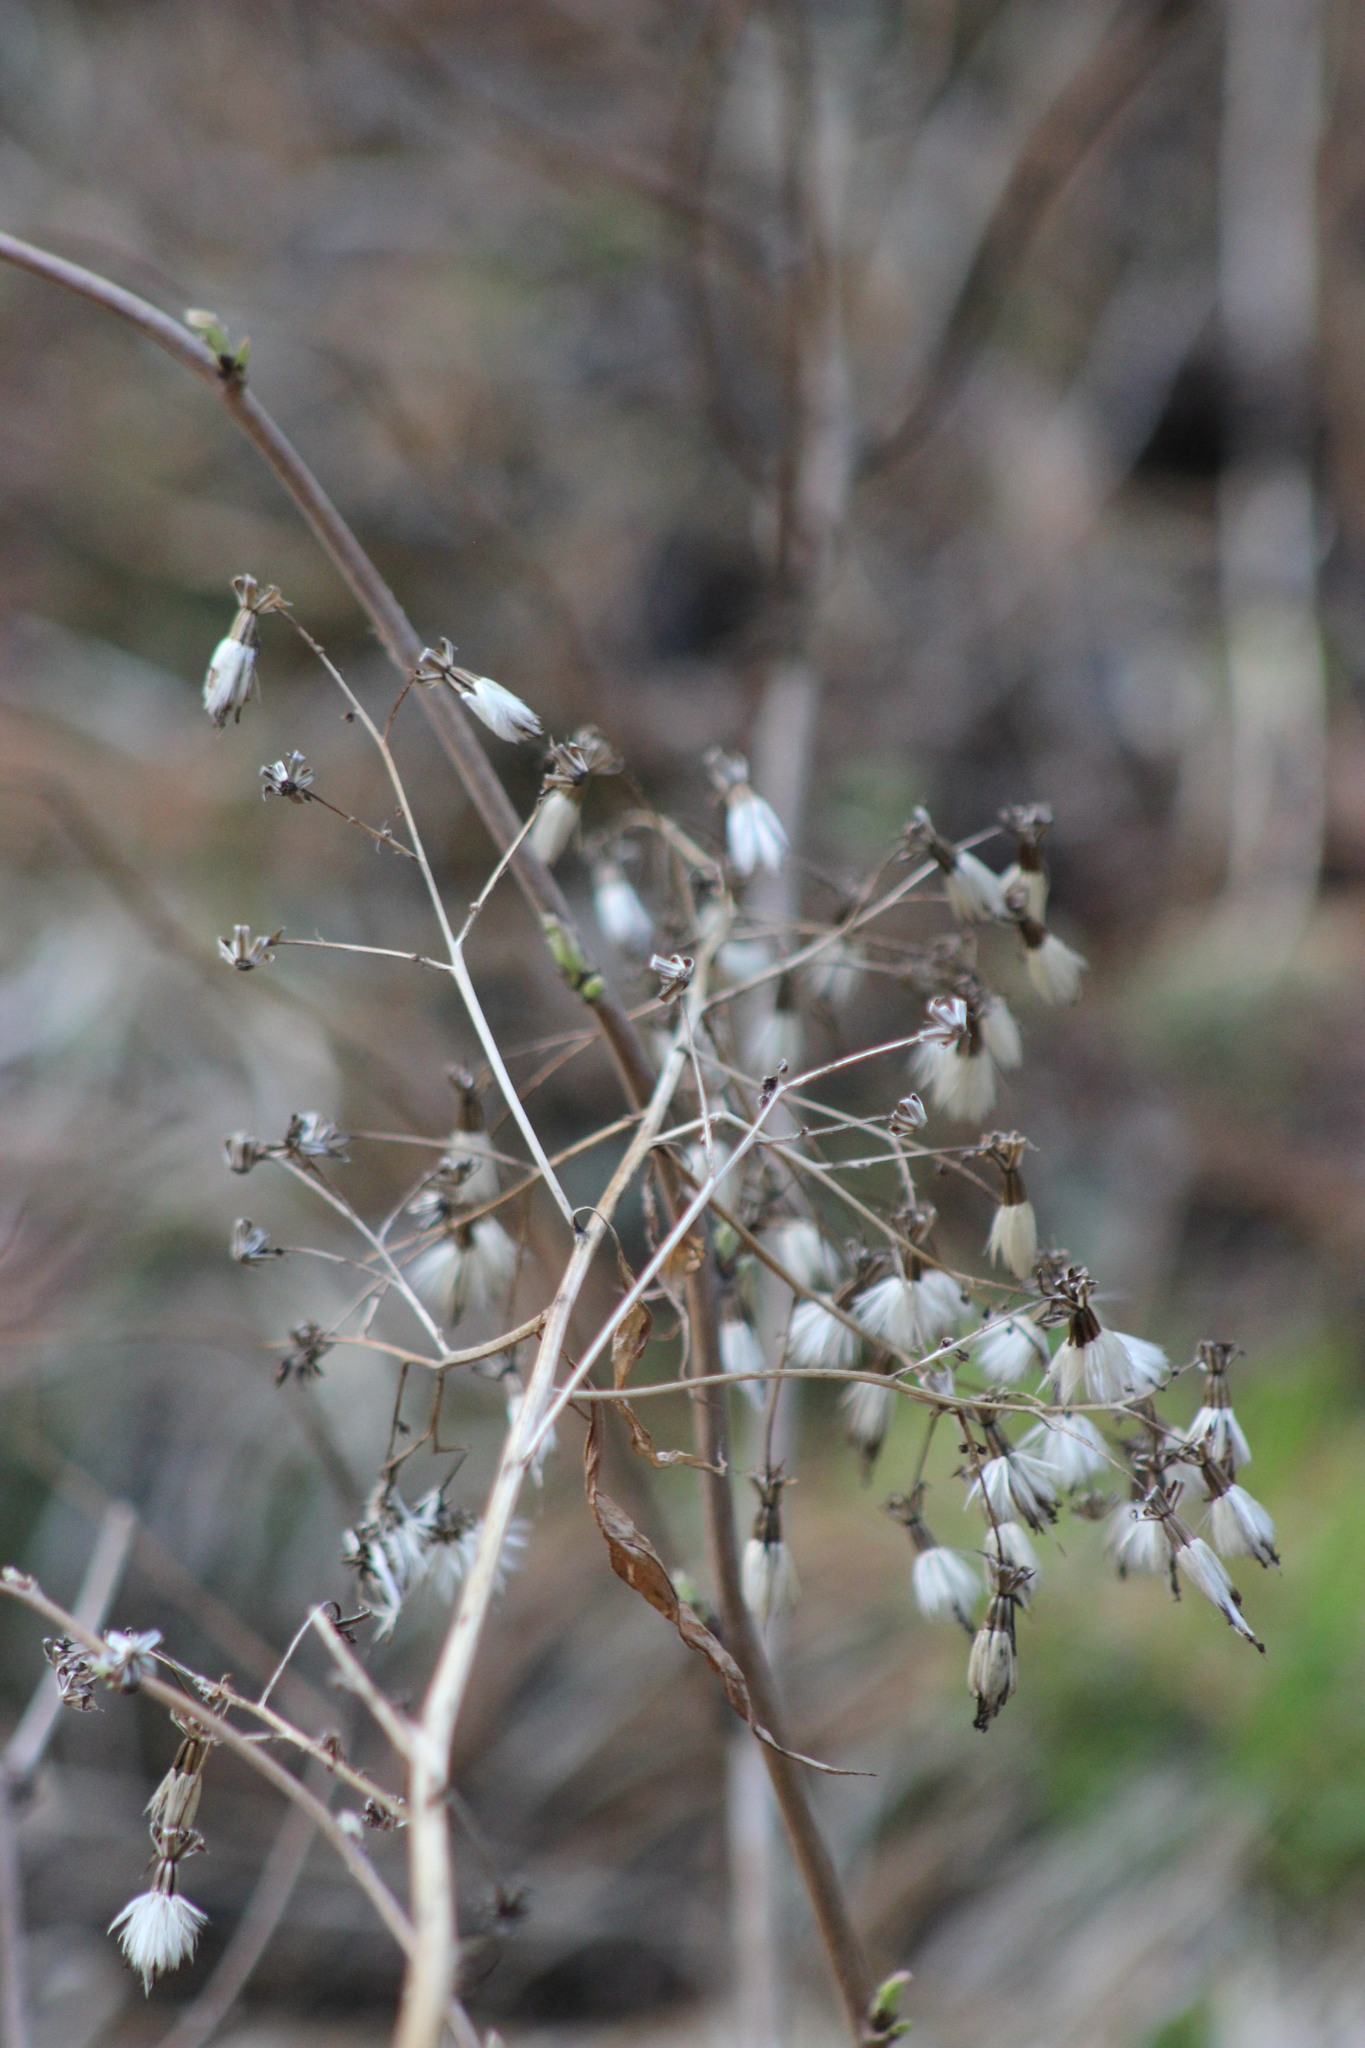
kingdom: Plantae
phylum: Tracheophyta
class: Magnoliopsida
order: Asterales
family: Asteraceae
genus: Parasenecio
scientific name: Parasenecio hastatus
